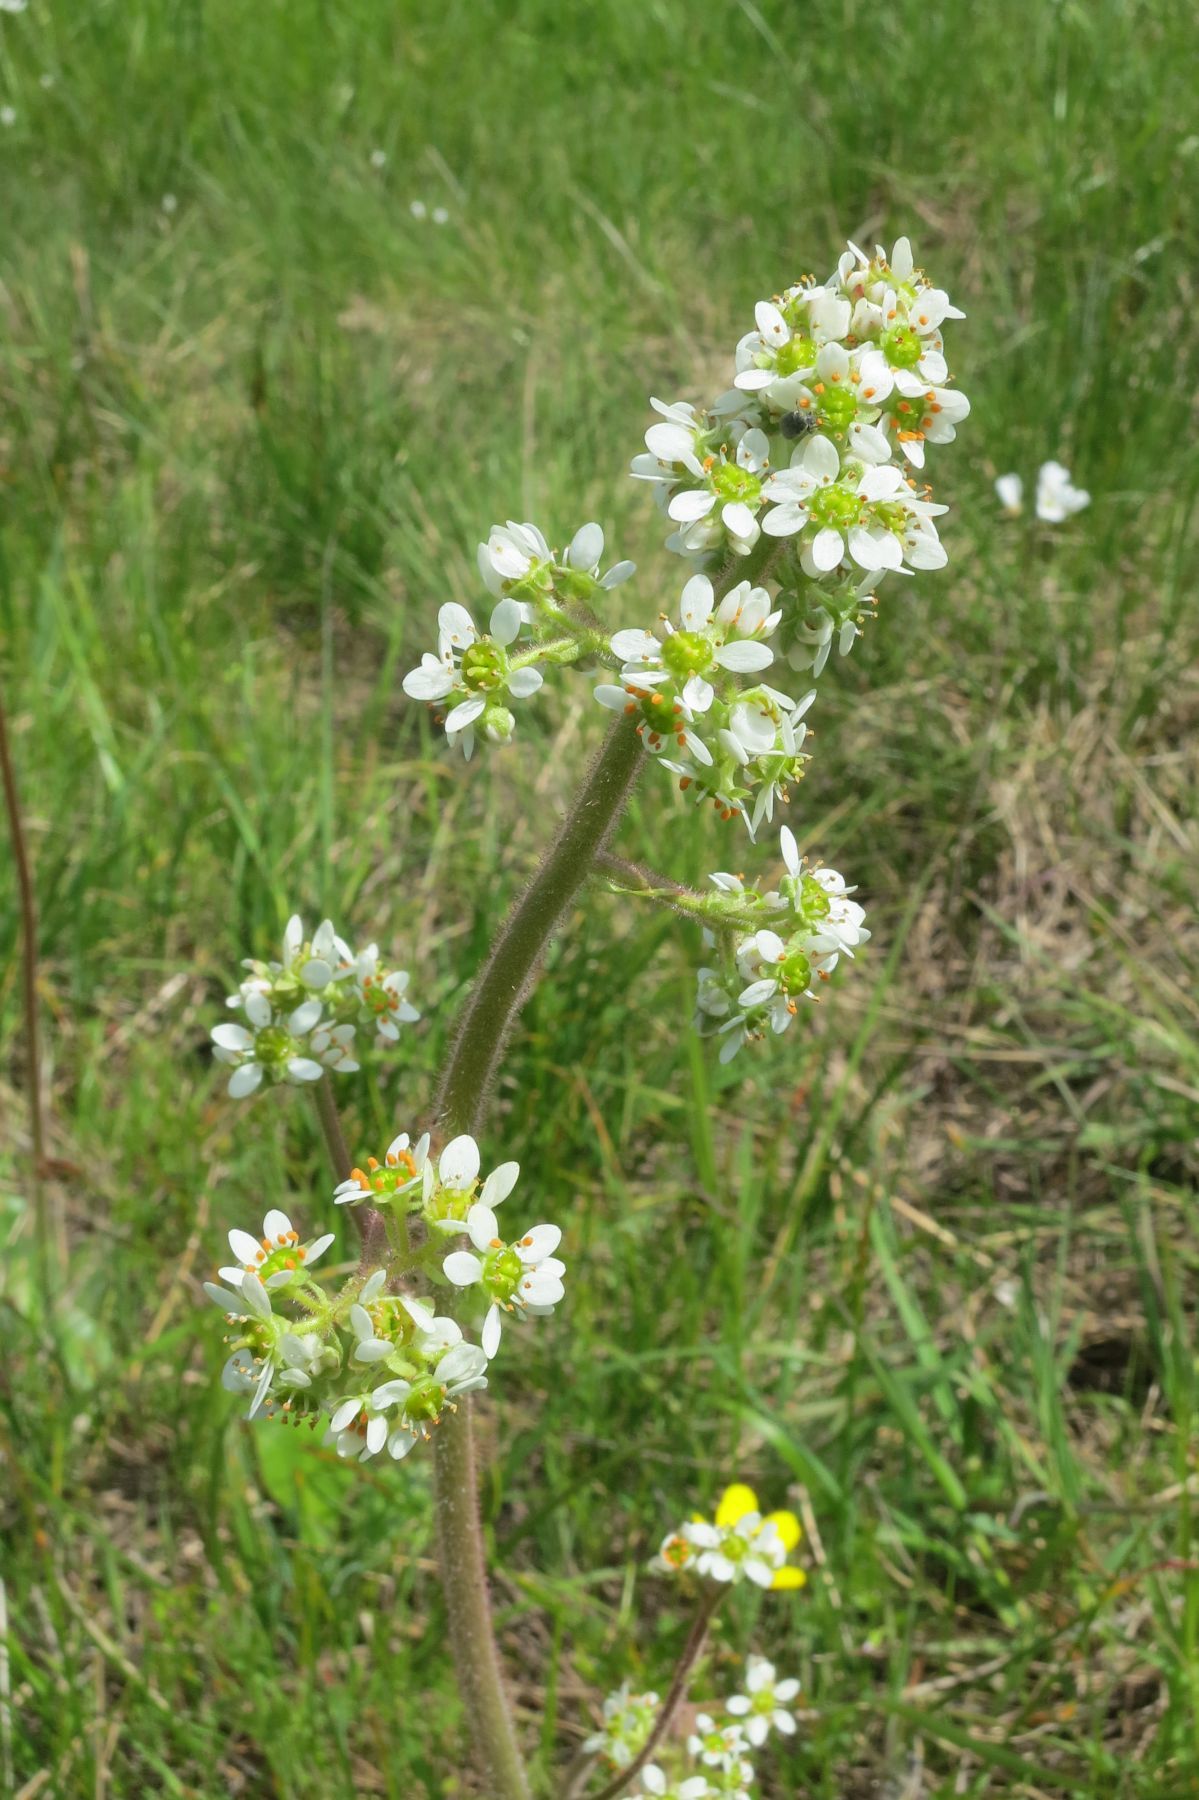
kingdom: Plantae
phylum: Tracheophyta
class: Magnoliopsida
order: Saxifragales
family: Saxifragaceae
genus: Micranthes
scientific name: Micranthes oregana
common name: Bog saxifrage
